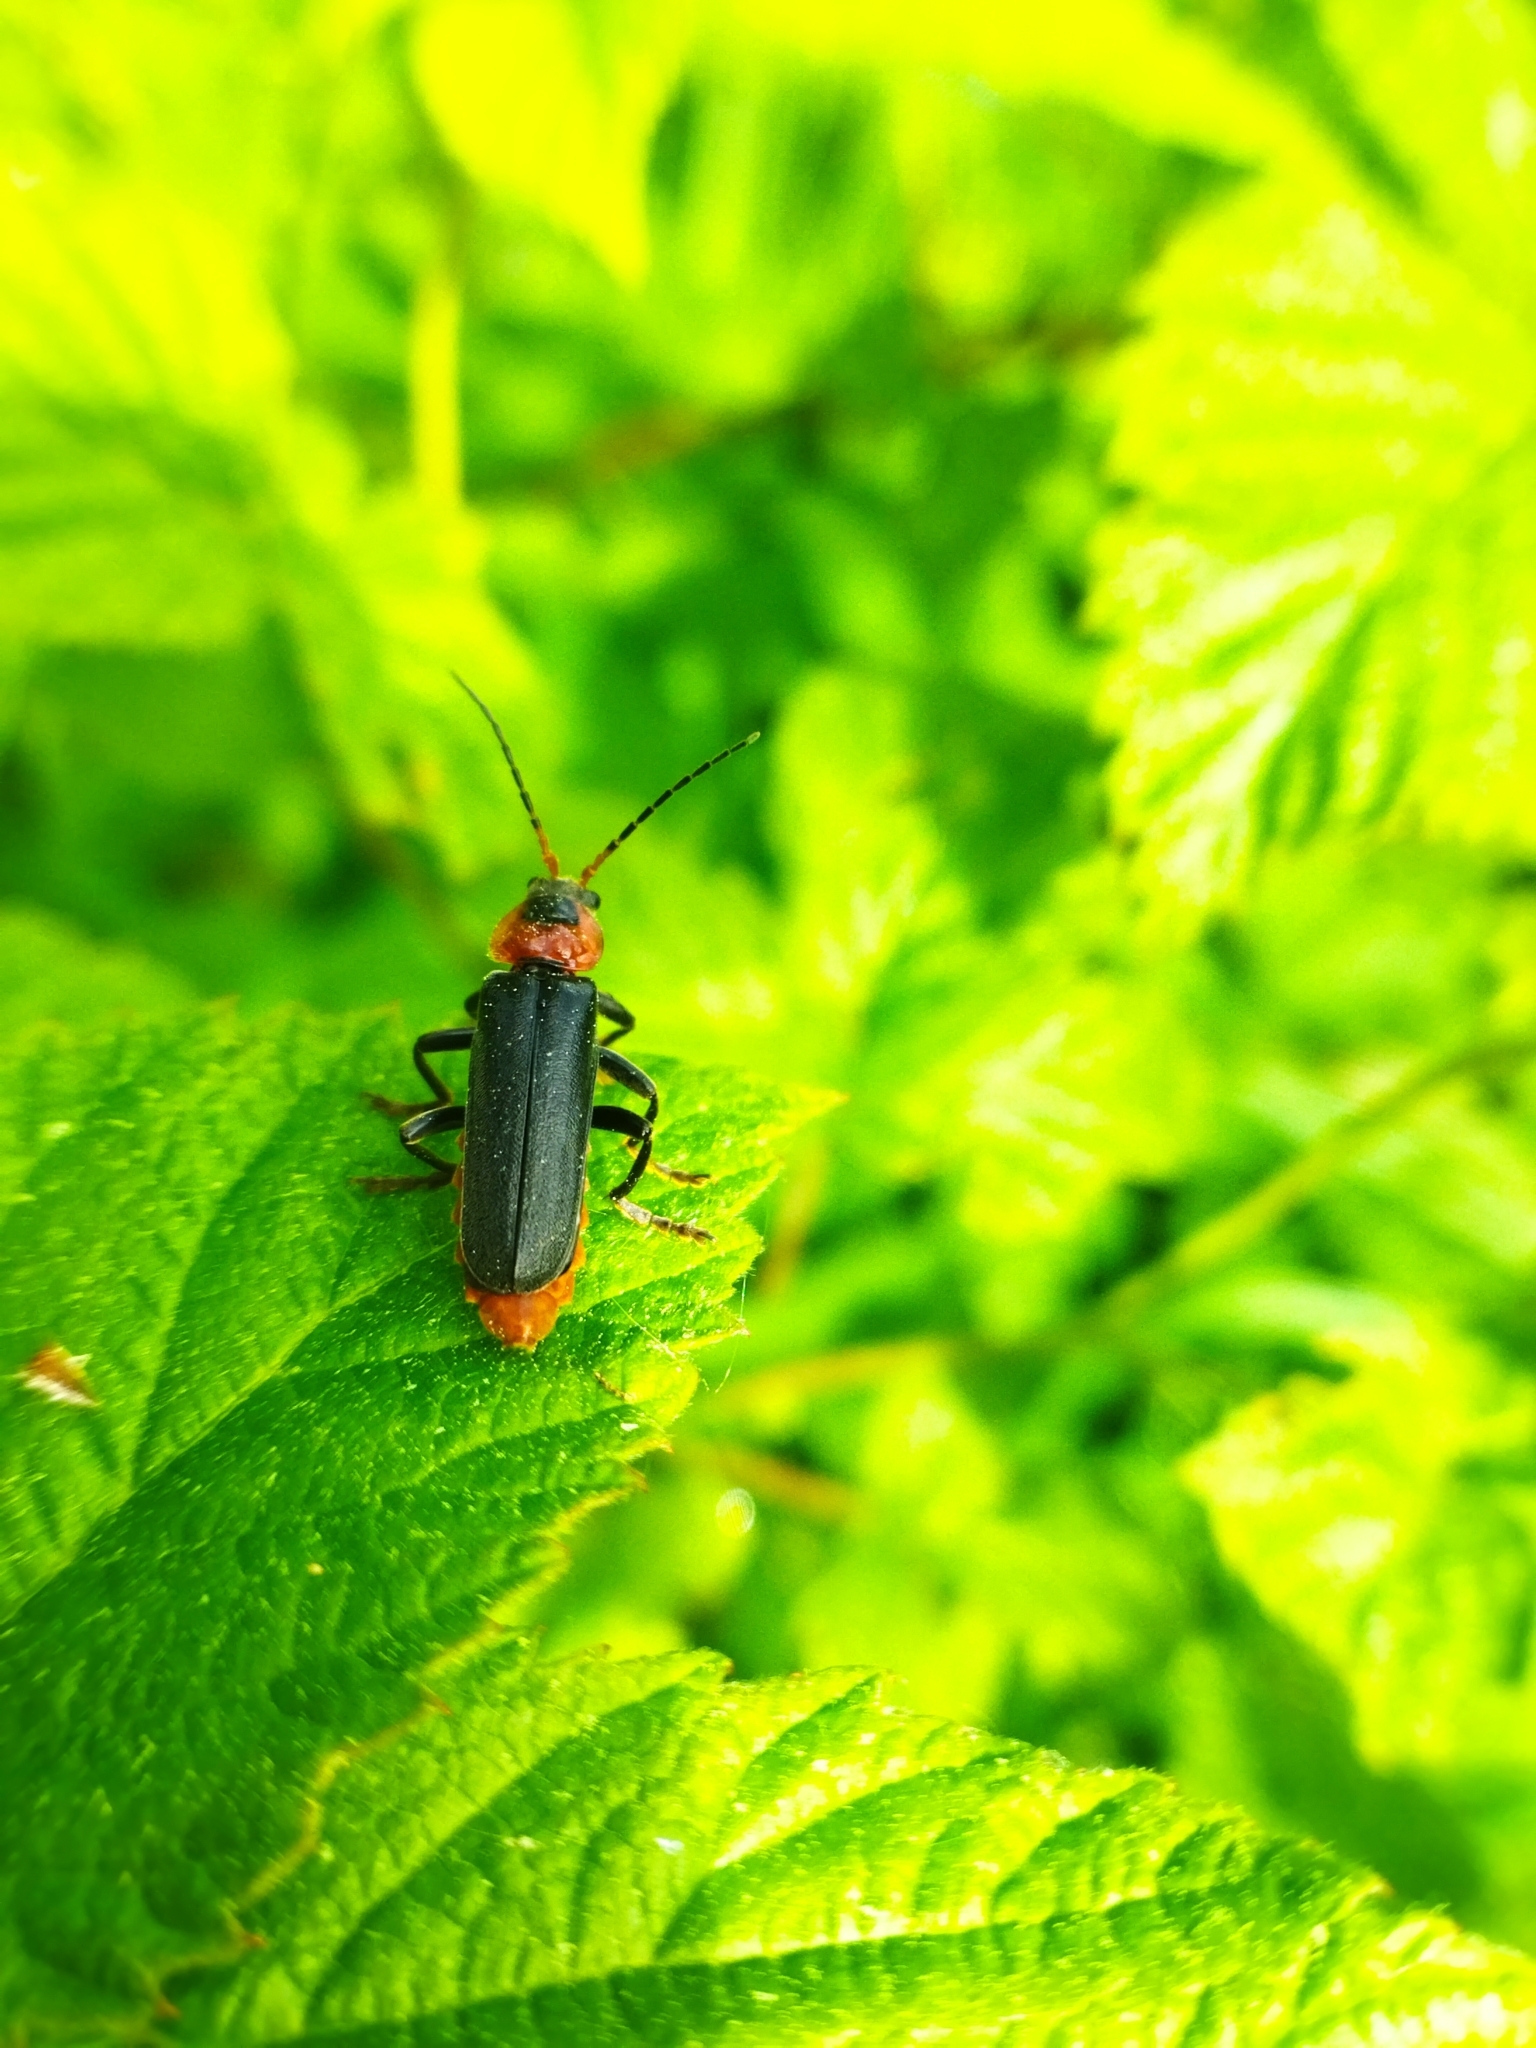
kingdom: Animalia
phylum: Arthropoda
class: Insecta
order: Coleoptera
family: Cantharidae
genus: Cantharis
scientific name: Cantharis fusca
